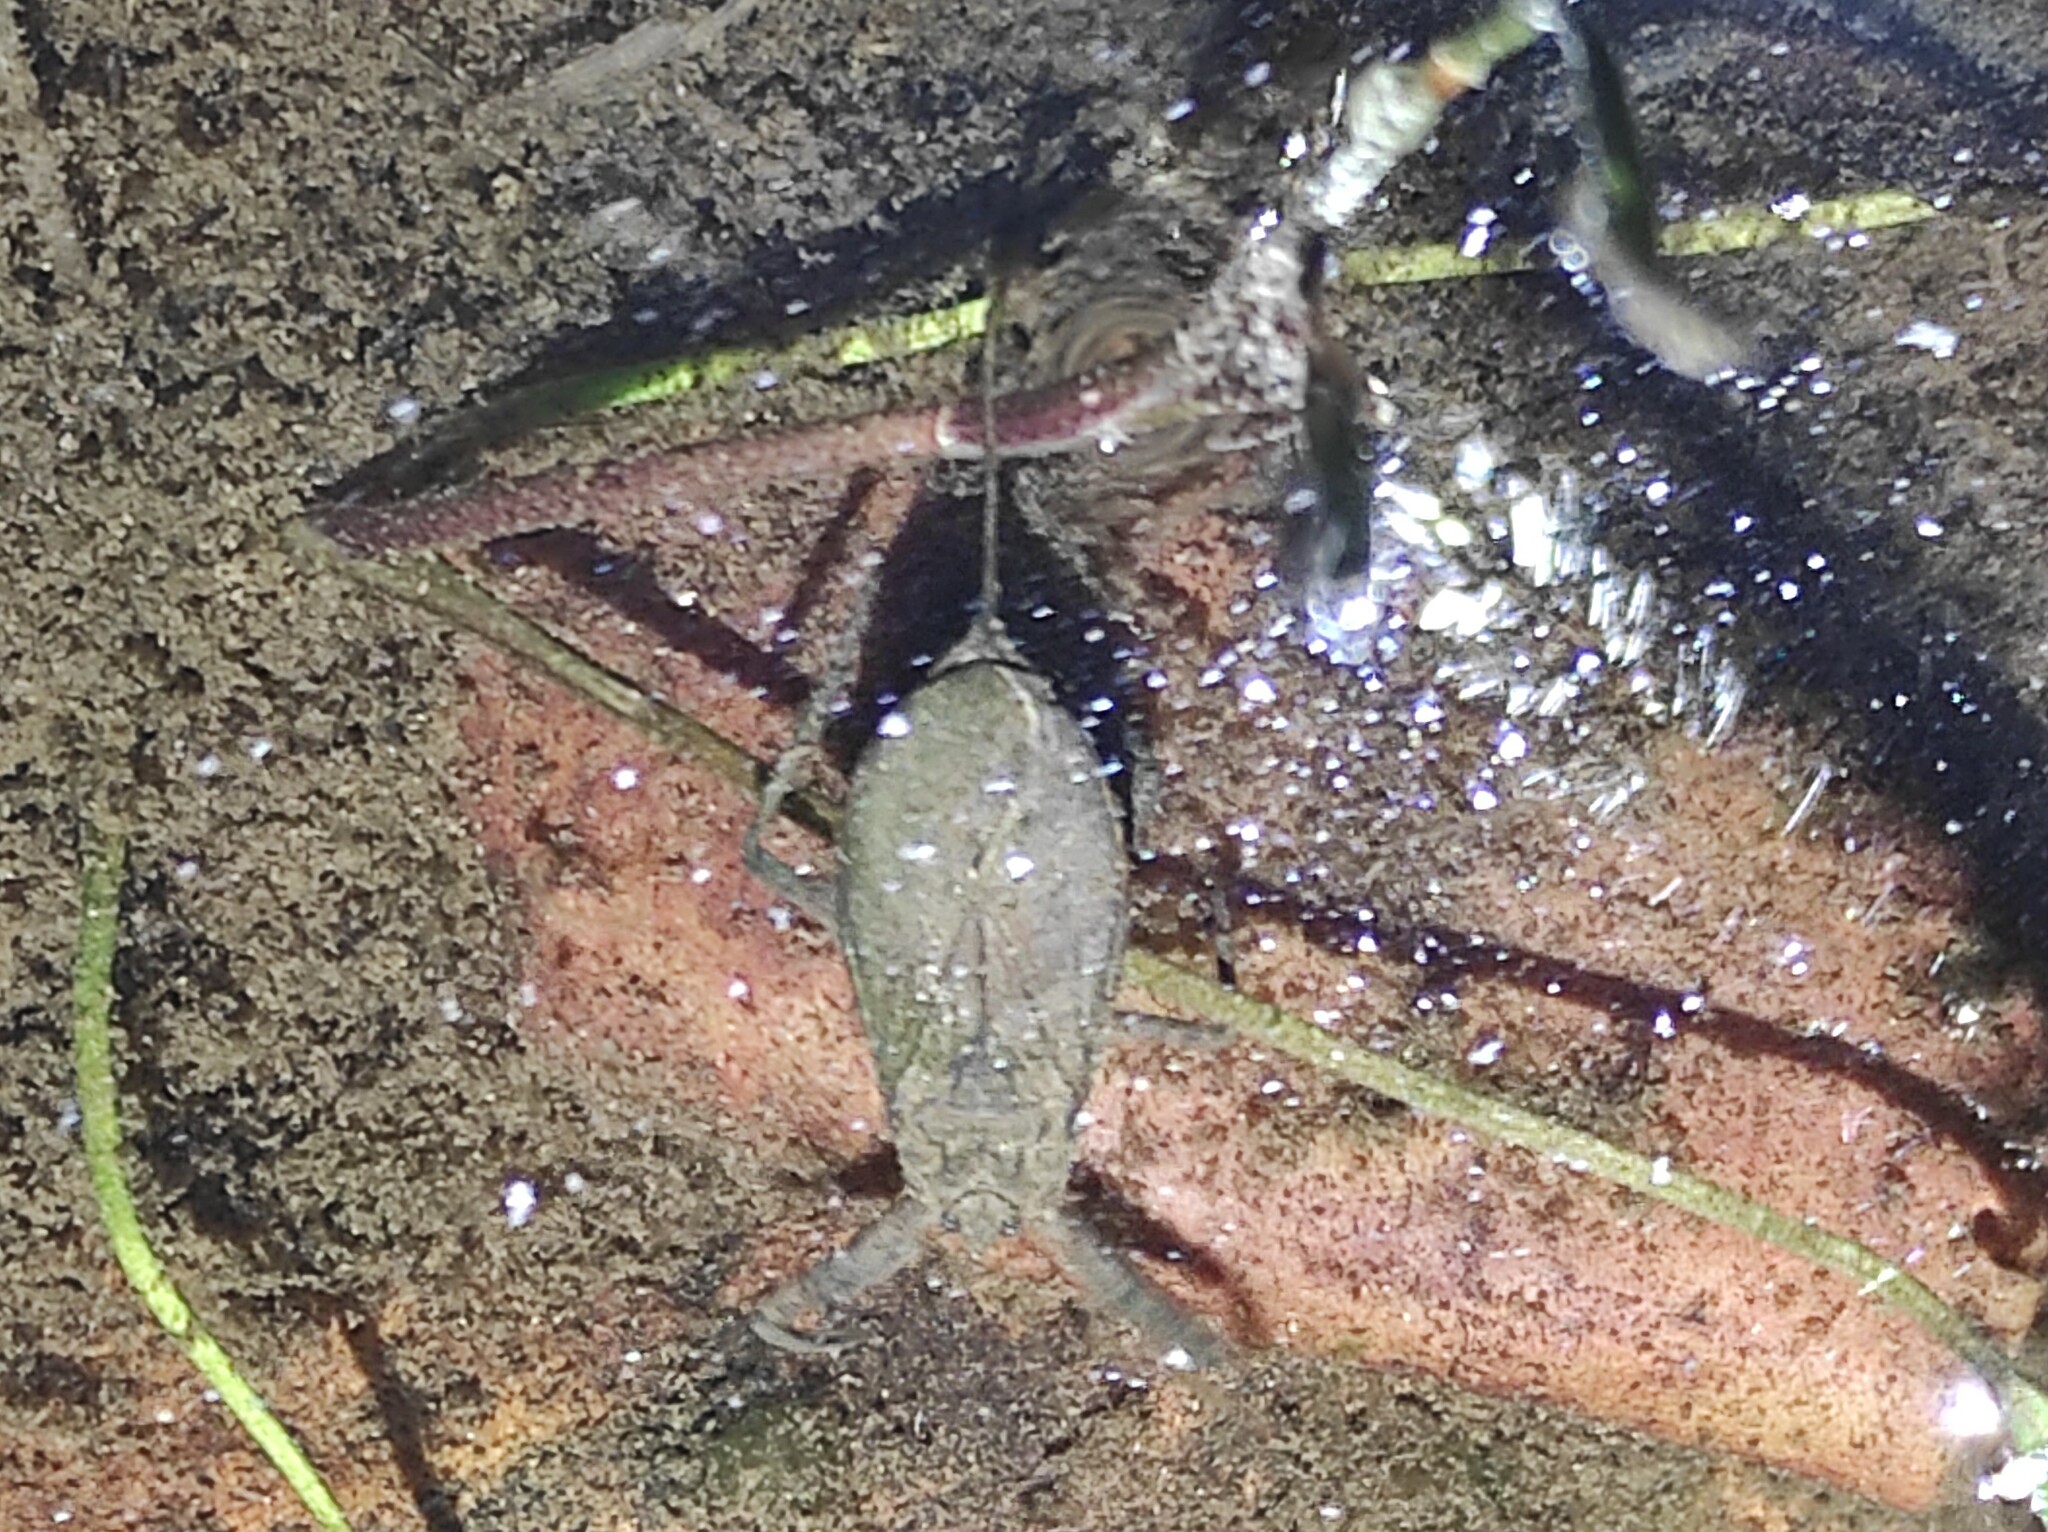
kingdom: Animalia
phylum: Arthropoda
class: Insecta
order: Hemiptera
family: Nepidae
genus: Nepa
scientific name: Nepa cinerea
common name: Water scorpion
